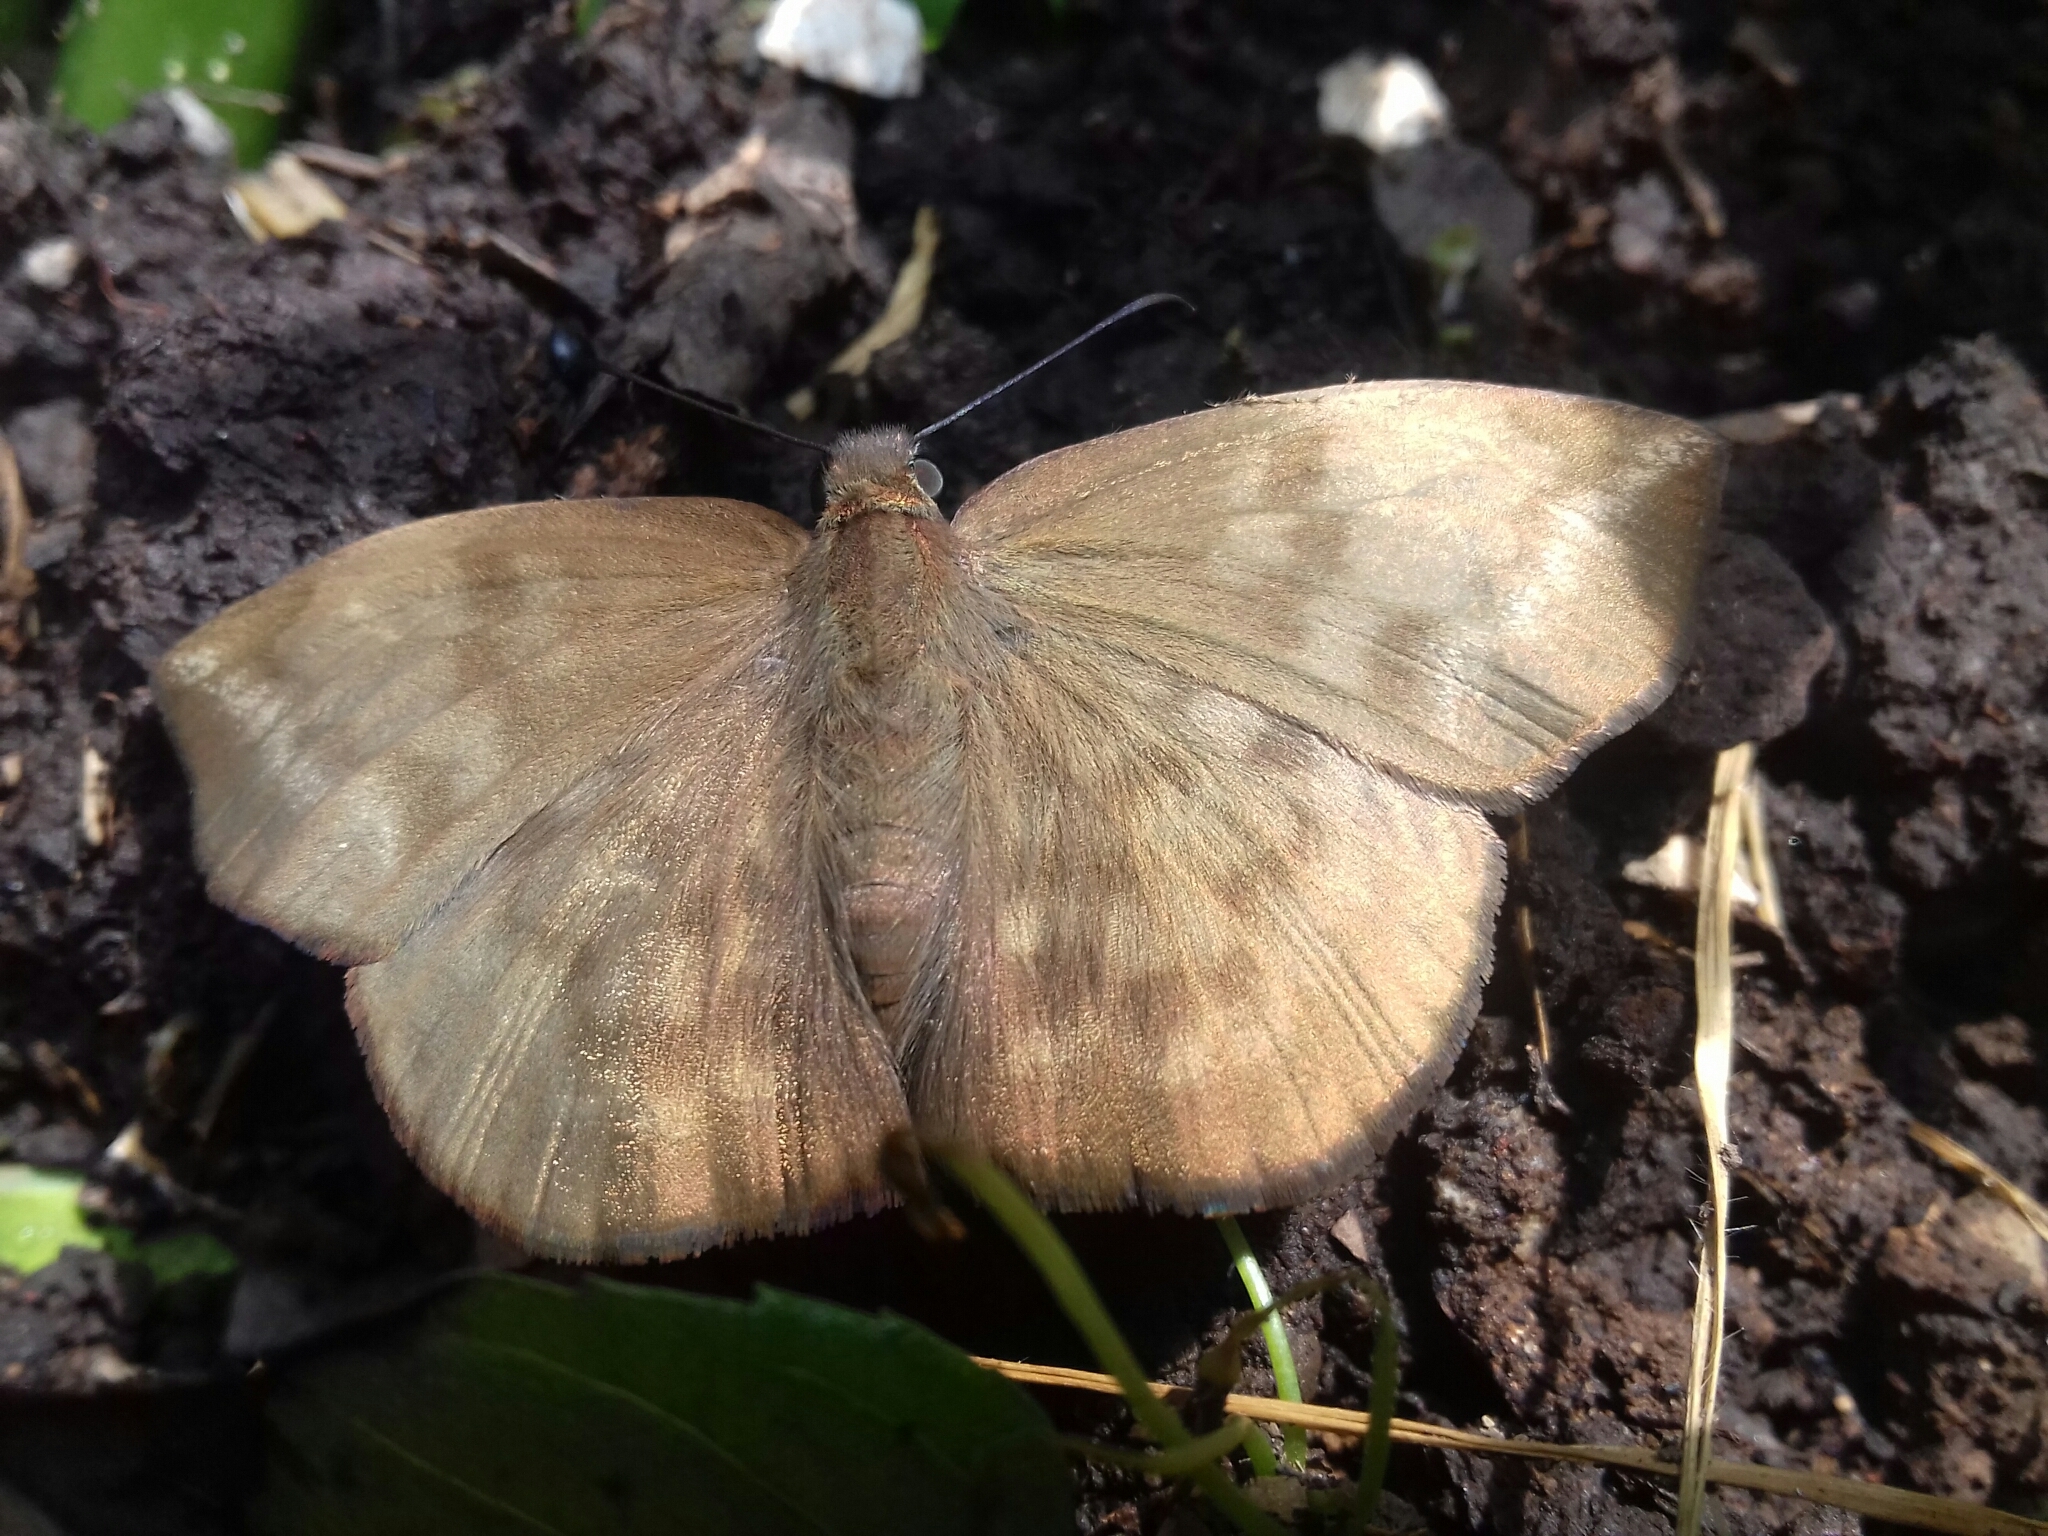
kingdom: Animalia
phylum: Arthropoda
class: Insecta
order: Lepidoptera
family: Hesperiidae
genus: Achlyodes
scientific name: Achlyodes pallida
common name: Pale sicklewing
